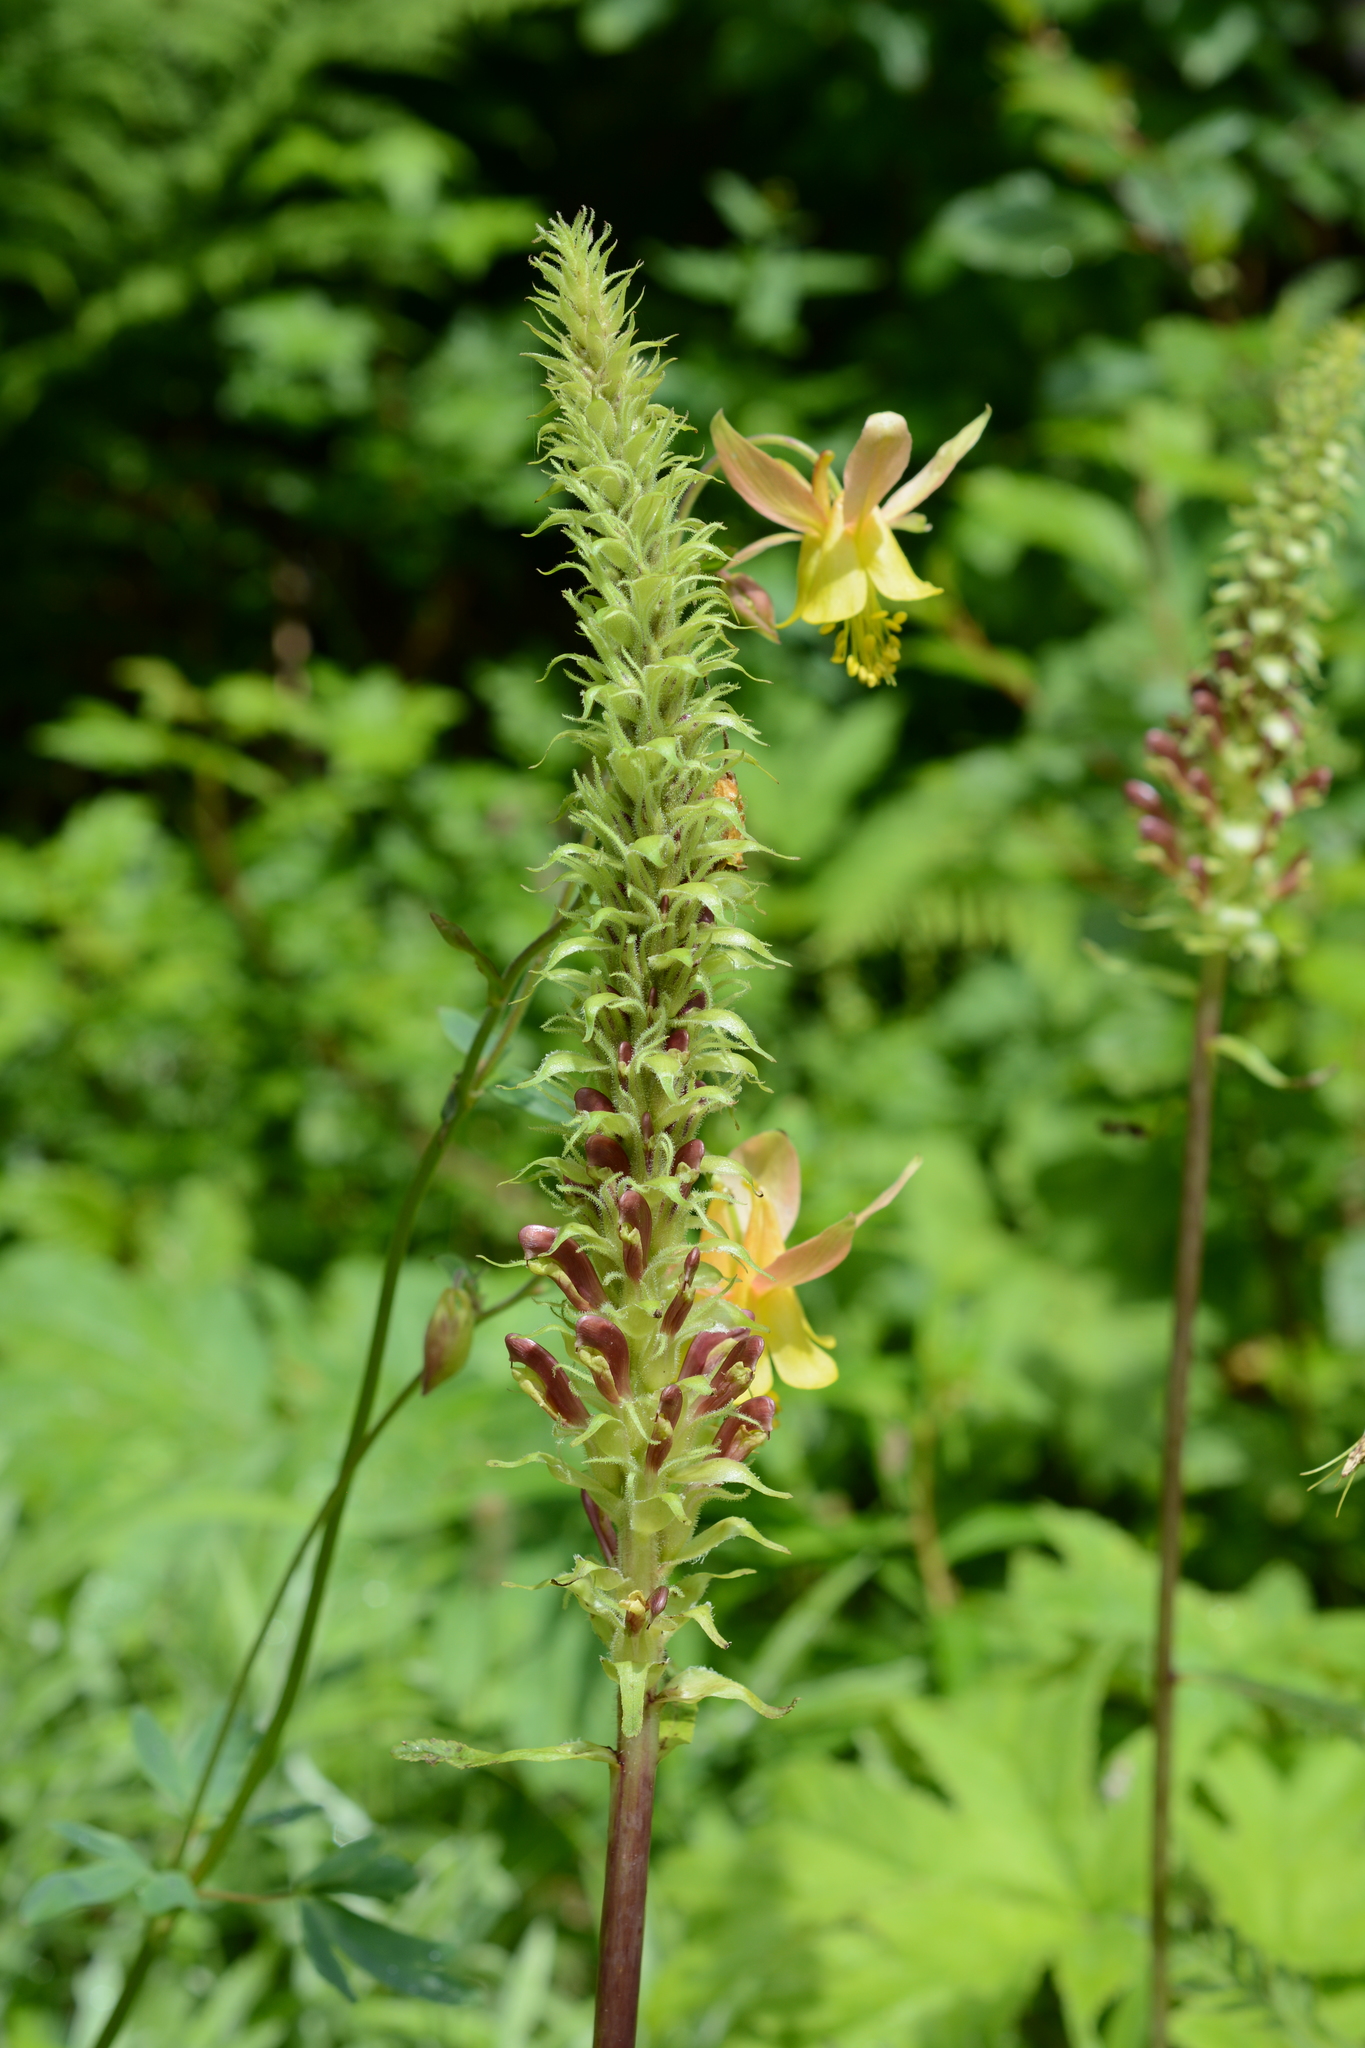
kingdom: Plantae
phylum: Tracheophyta
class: Magnoliopsida
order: Lamiales
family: Orobanchaceae
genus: Pedicularis
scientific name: Pedicularis bracteosa
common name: Bracted lousewort
